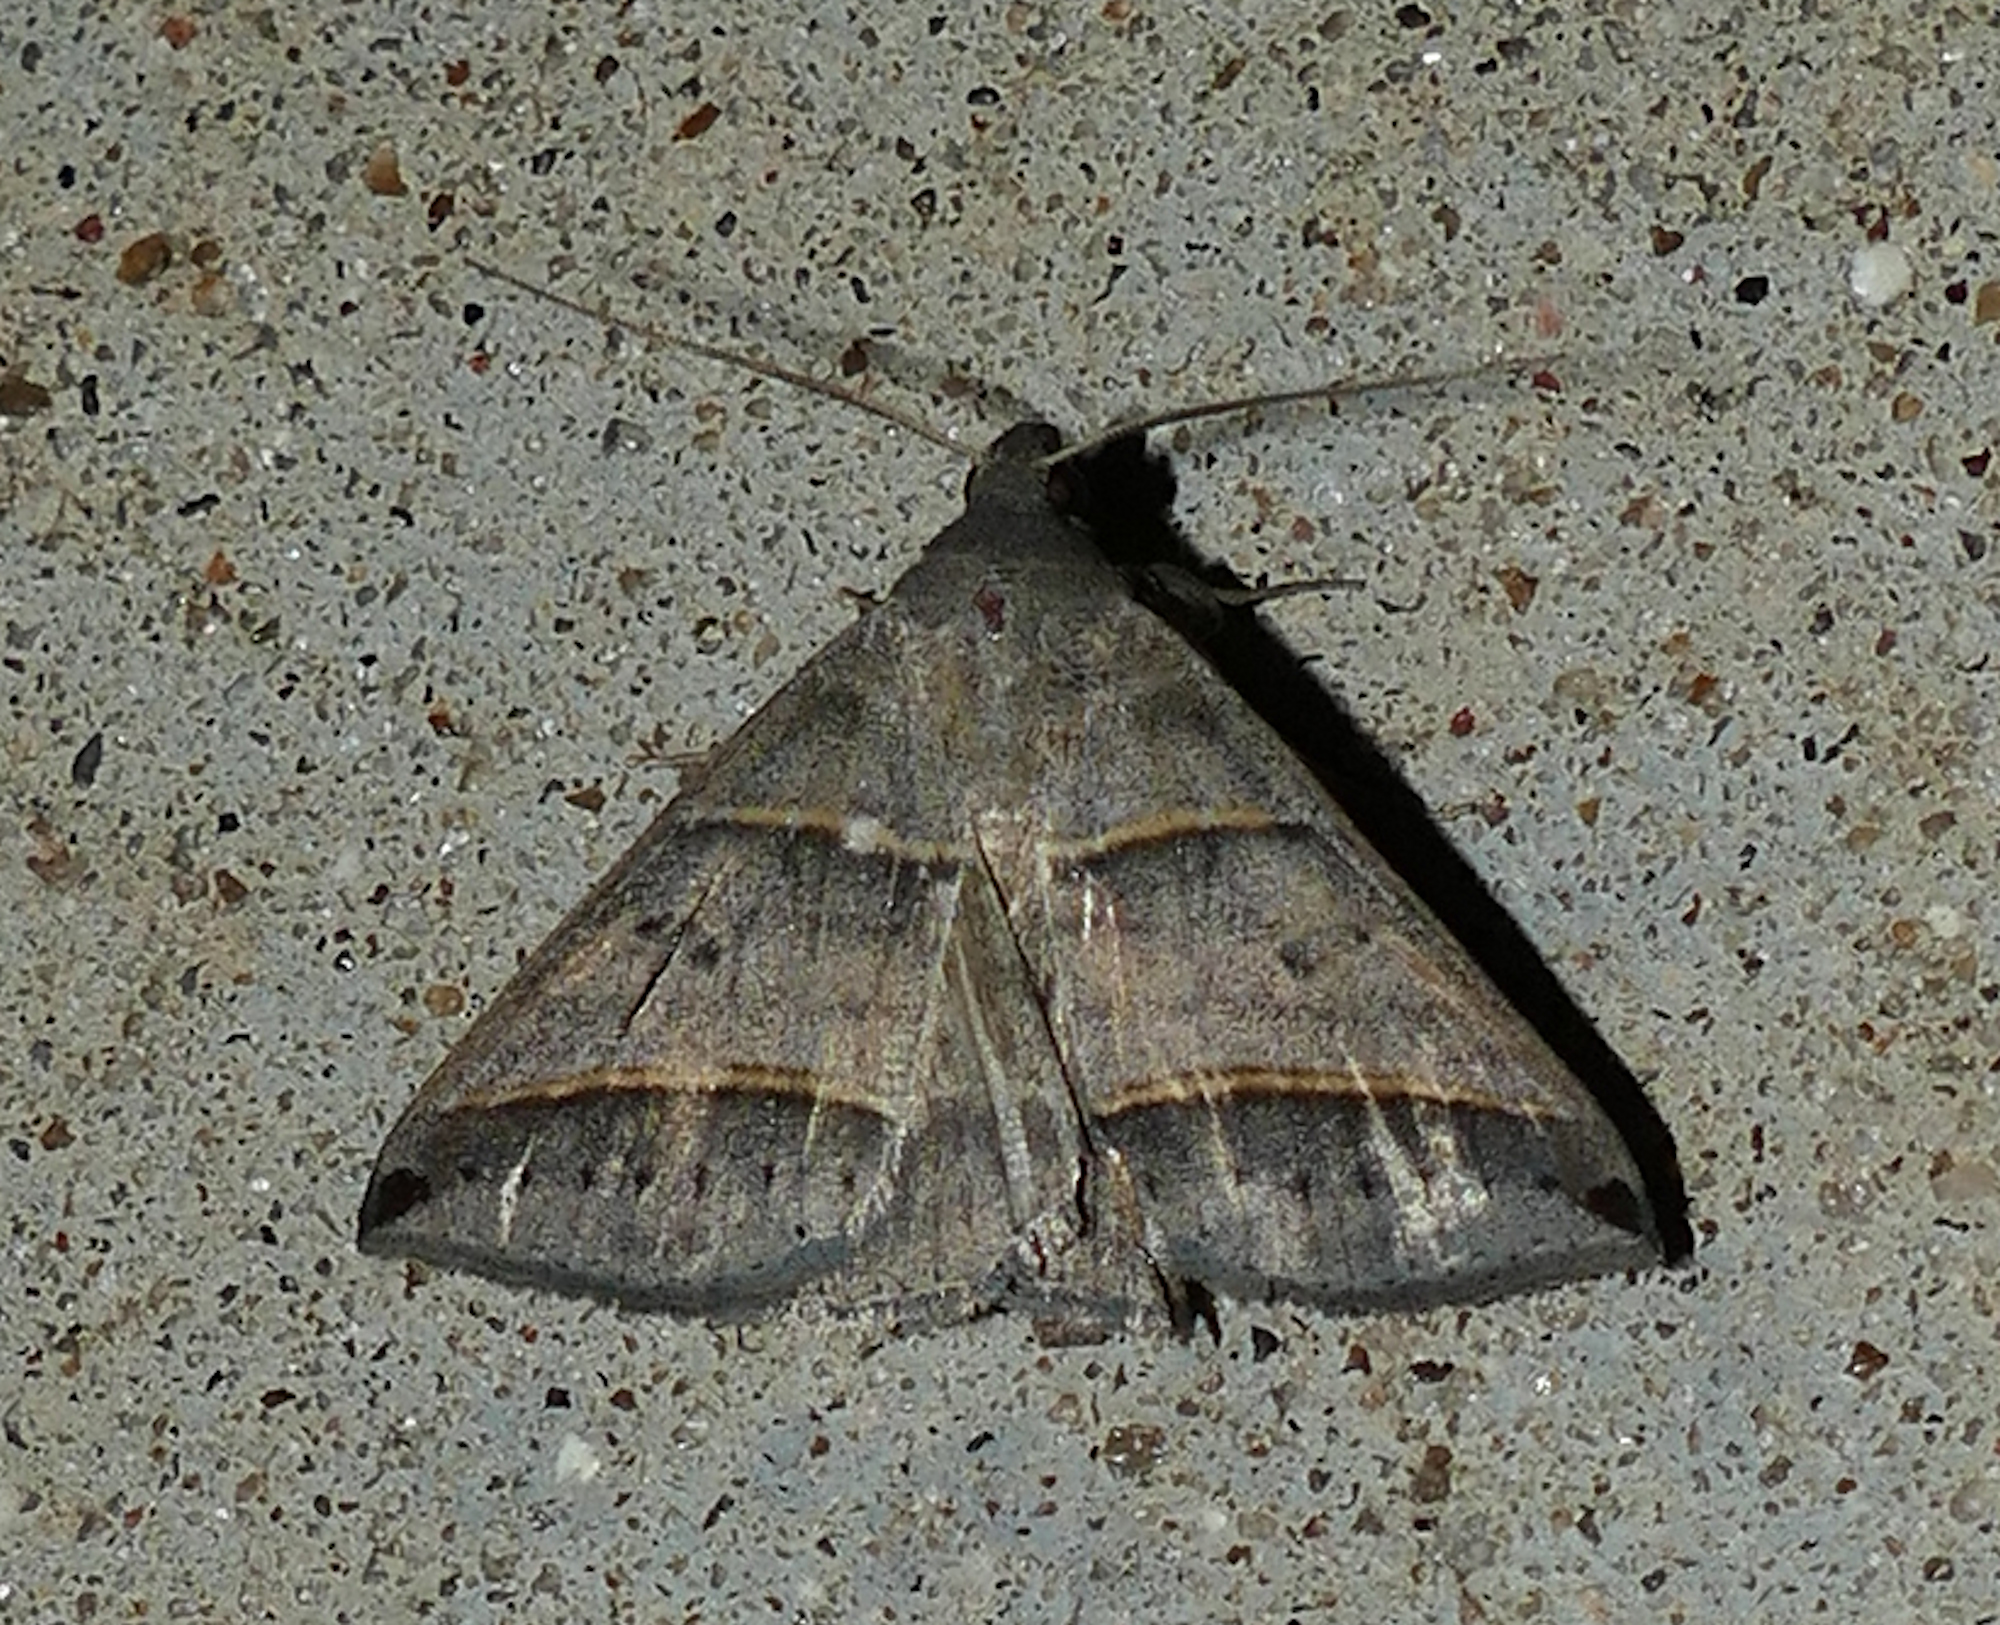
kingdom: Animalia
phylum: Arthropoda
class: Insecta
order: Lepidoptera
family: Erebidae
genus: Ptichodis
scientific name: Ptichodis vinculum
